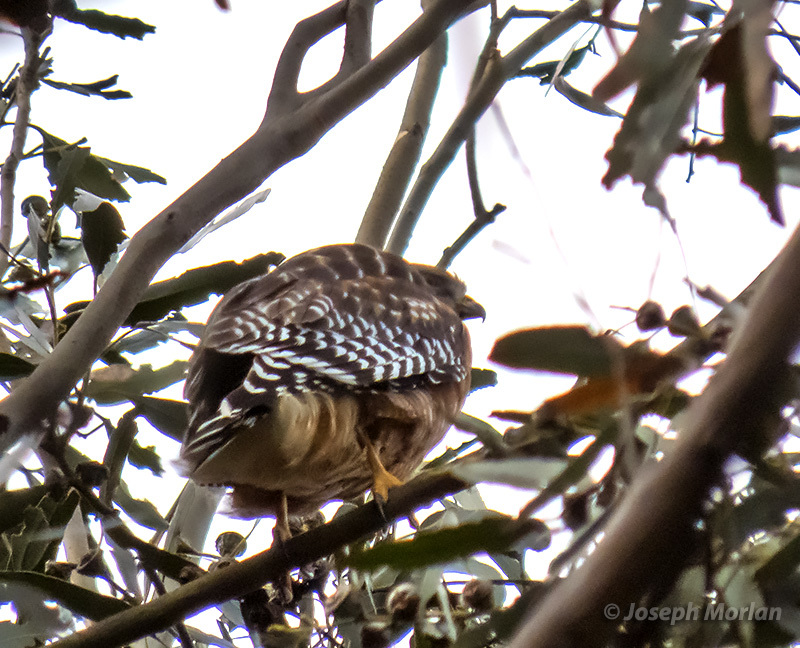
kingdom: Animalia
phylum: Chordata
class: Aves
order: Accipitriformes
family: Accipitridae
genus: Buteo
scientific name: Buteo lineatus
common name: Red-shouldered hawk
